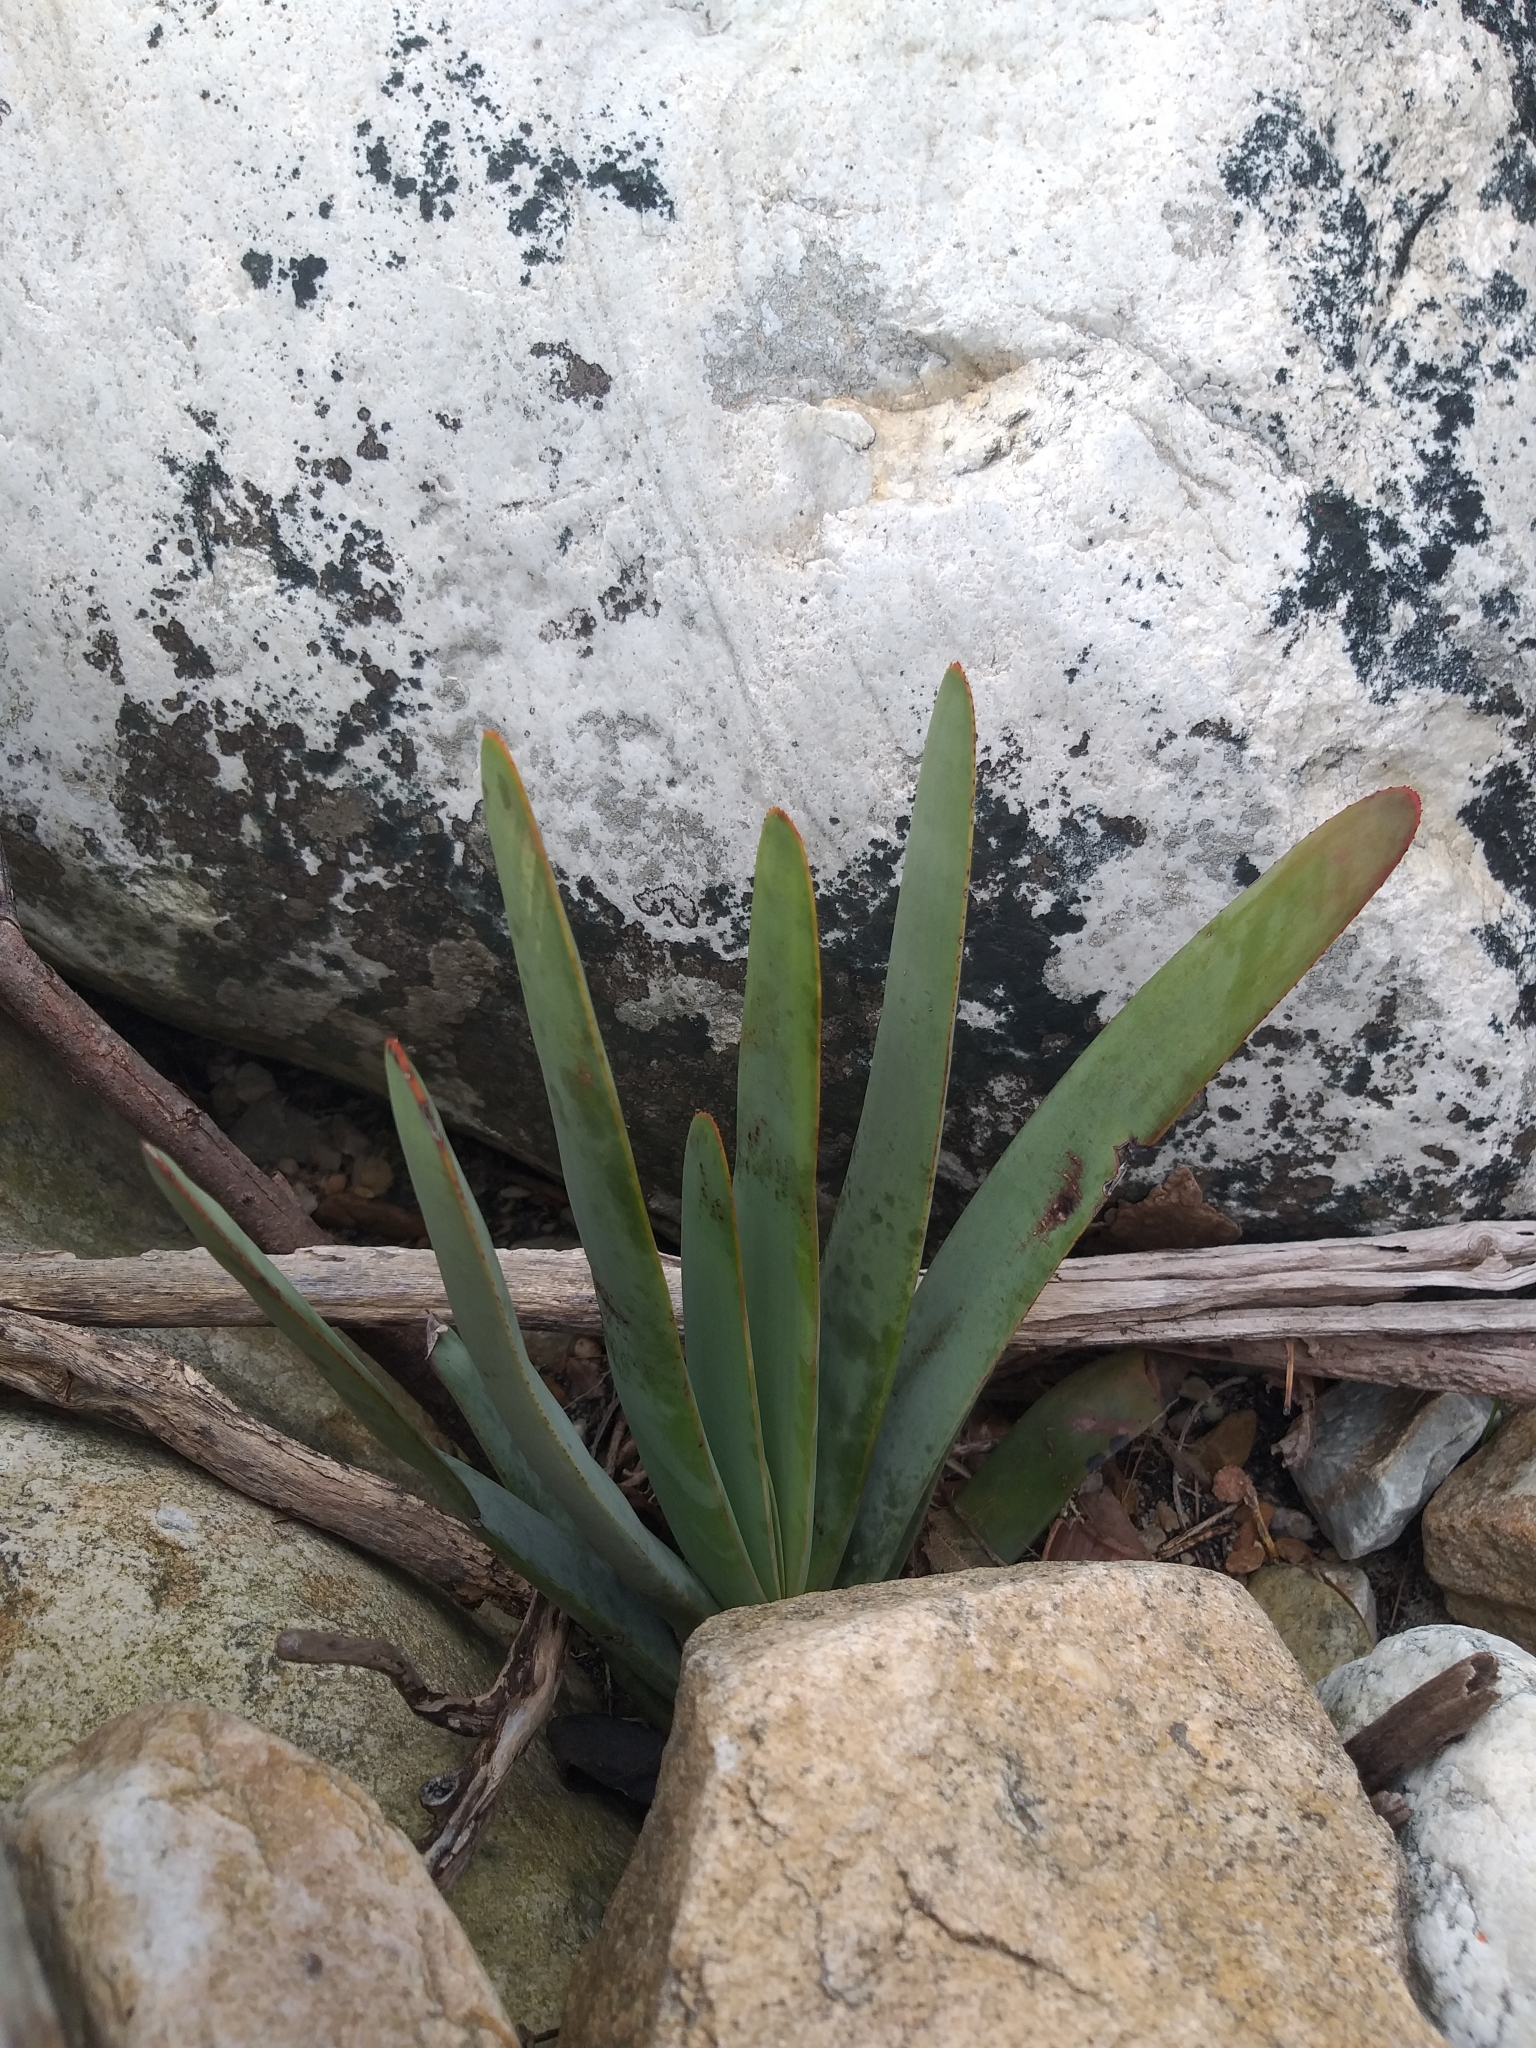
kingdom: Plantae
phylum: Tracheophyta
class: Liliopsida
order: Asparagales
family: Asphodelaceae
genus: Kumara
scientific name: Kumara plicatilis
